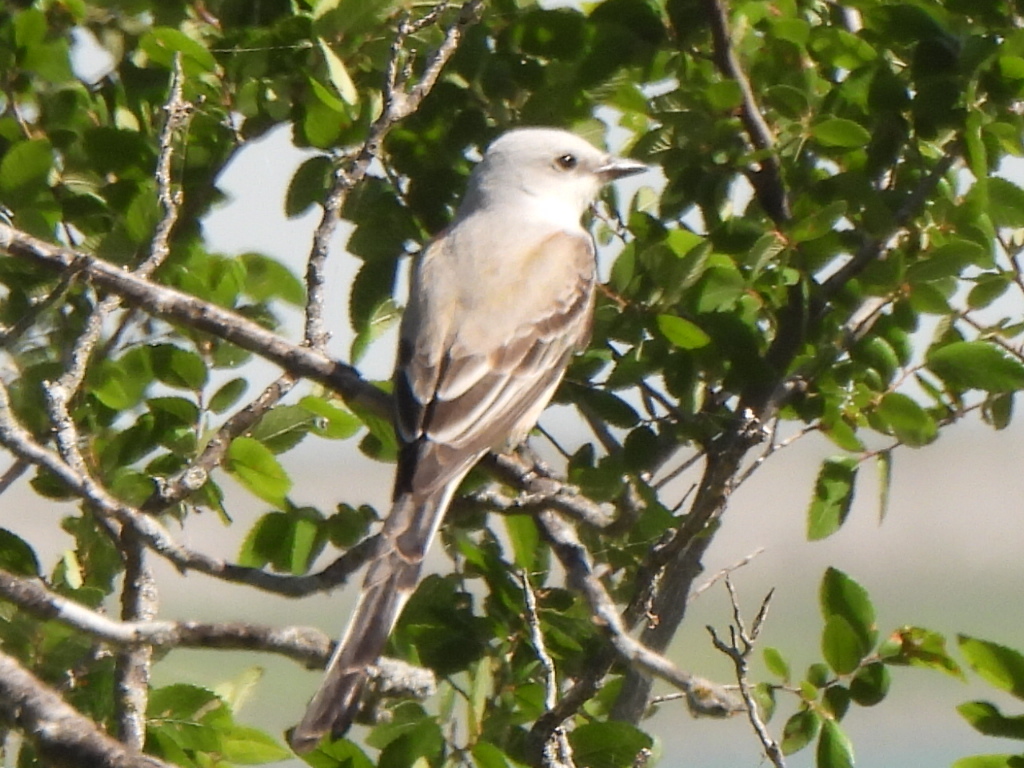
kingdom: Animalia
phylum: Chordata
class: Aves
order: Passeriformes
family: Tyrannidae
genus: Tyrannus
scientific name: Tyrannus forficatus
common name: Scissor-tailed flycatcher
